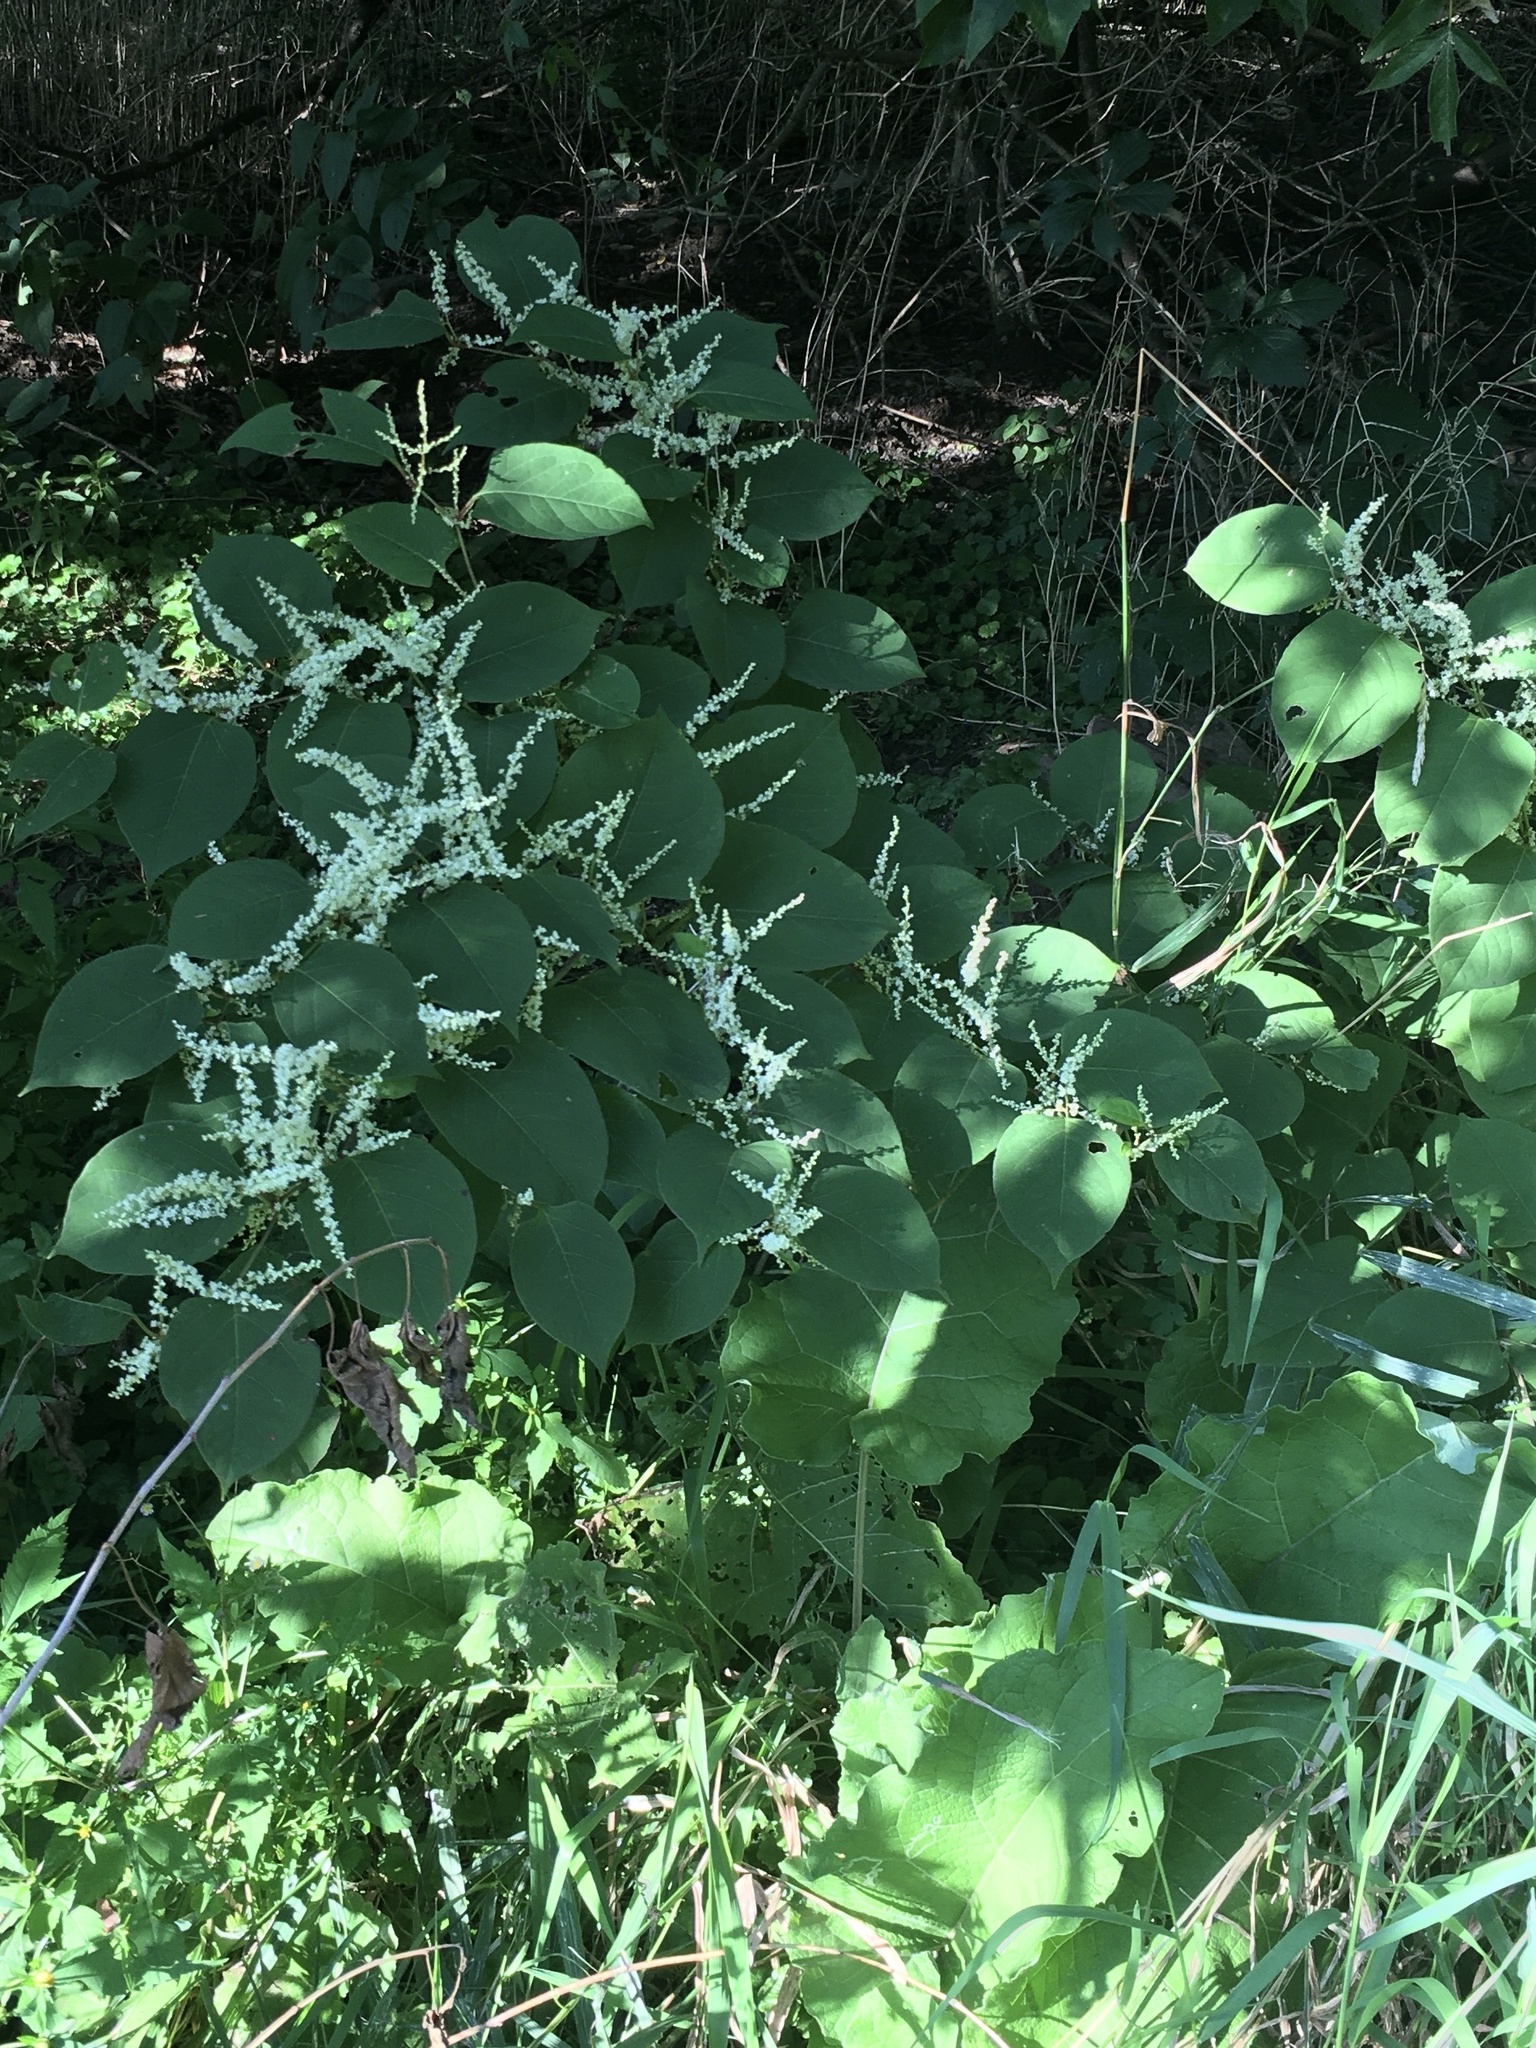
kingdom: Plantae
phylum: Tracheophyta
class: Magnoliopsida
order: Caryophyllales
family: Polygonaceae
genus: Reynoutria
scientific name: Reynoutria japonica
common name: Japanese knotweed
